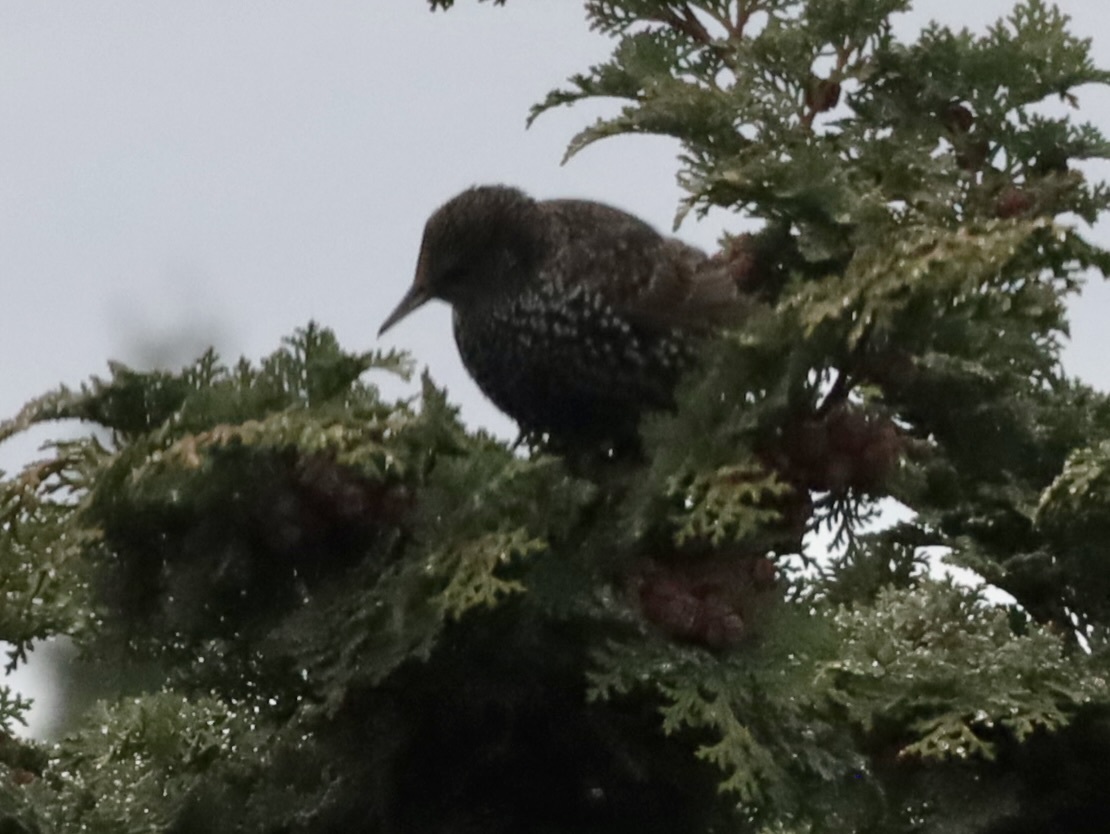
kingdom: Animalia
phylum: Chordata
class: Aves
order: Passeriformes
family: Sturnidae
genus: Sturnus
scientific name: Sturnus vulgaris
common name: Common starling
